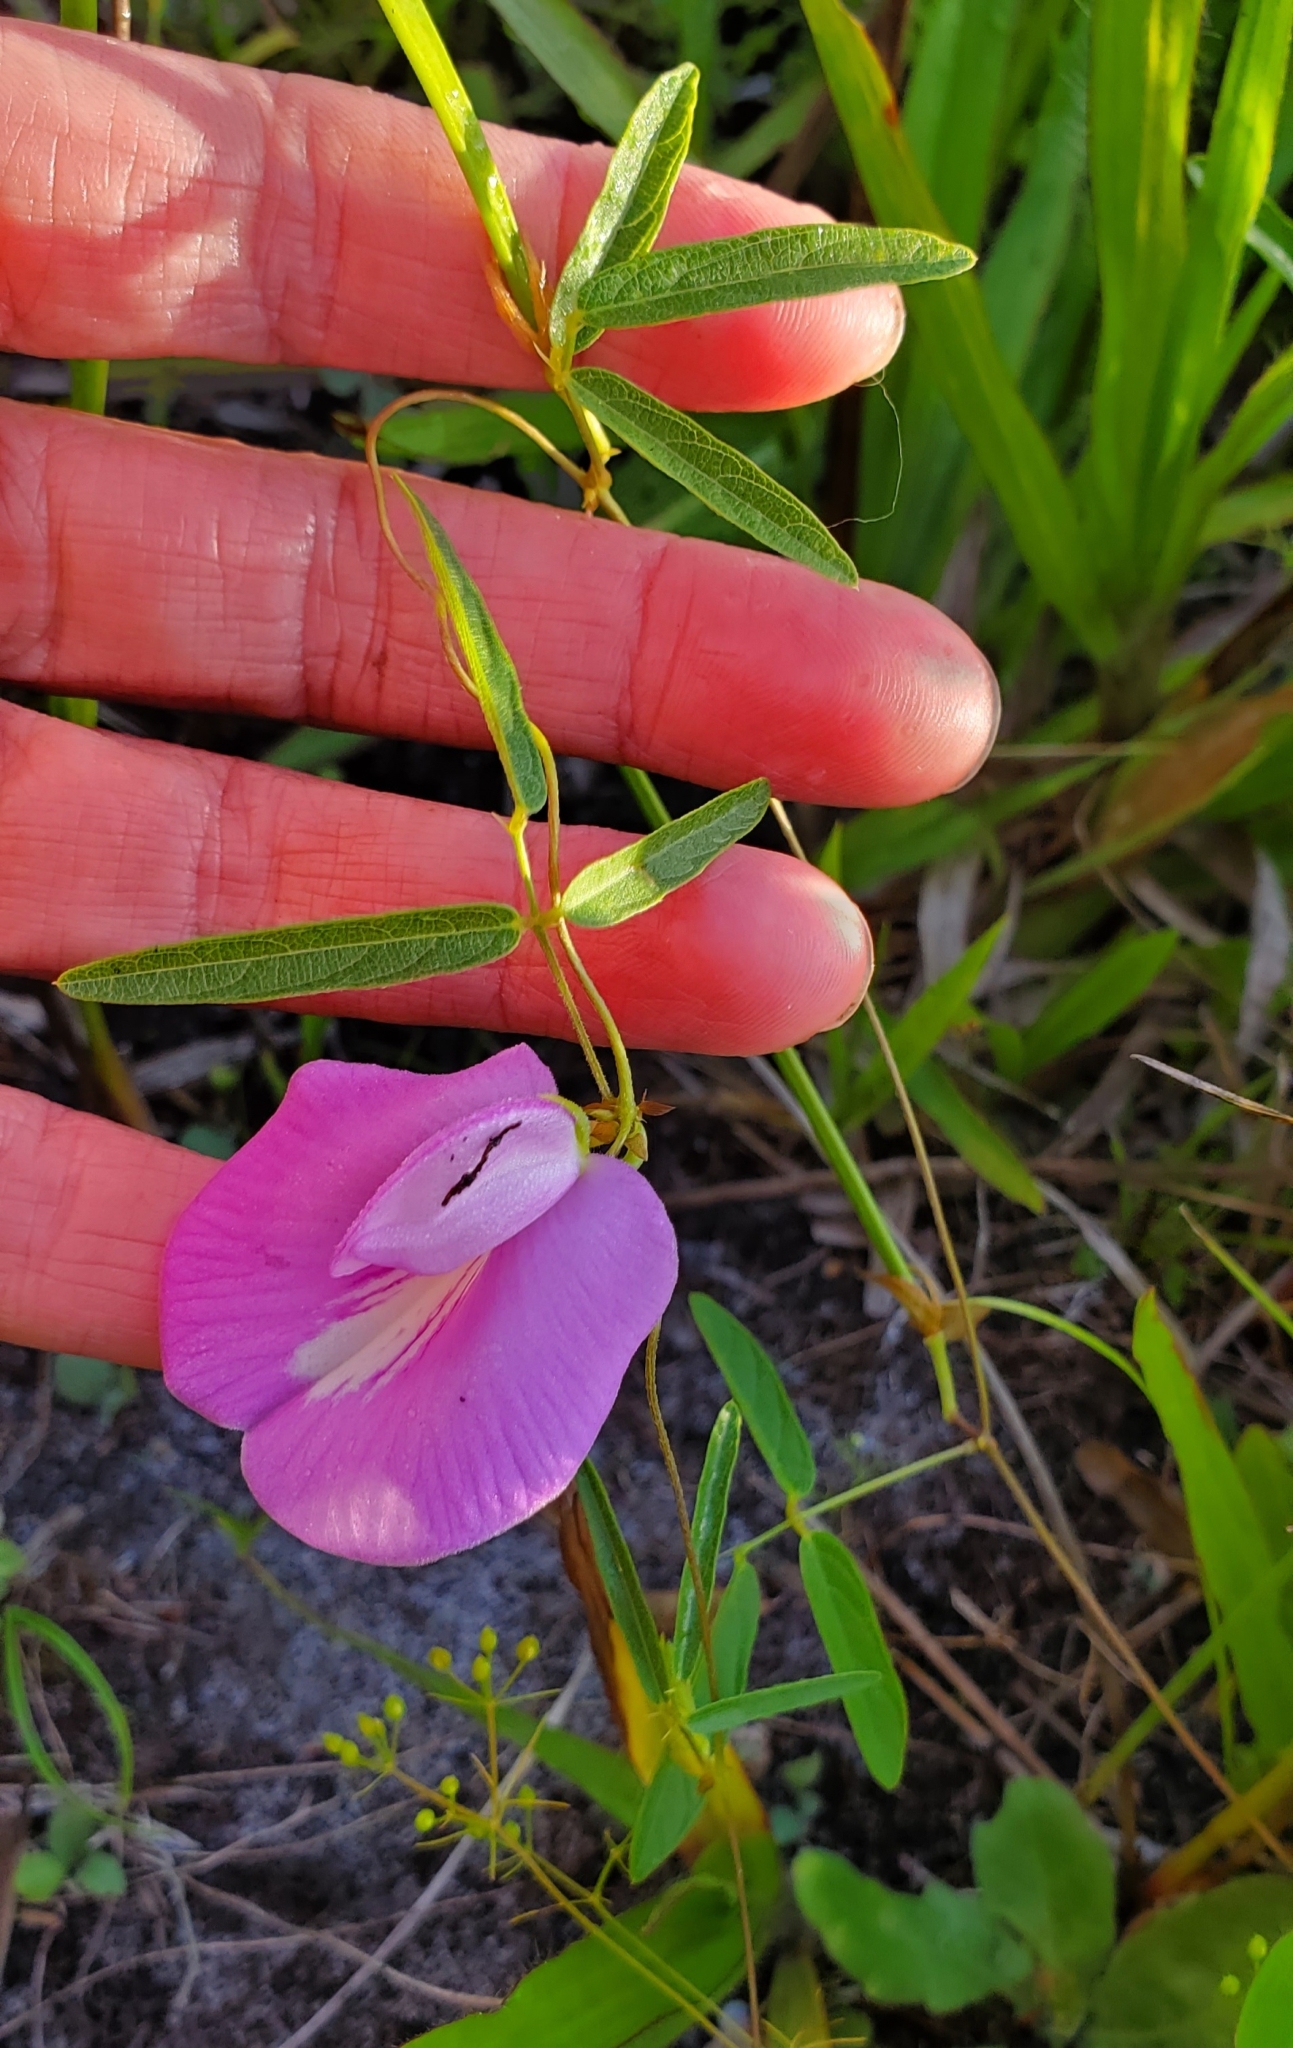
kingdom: Plantae
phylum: Tracheophyta
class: Magnoliopsida
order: Fabales
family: Fabaceae
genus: Centrosema
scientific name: Centrosema virginianum
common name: Butterfly-pea
